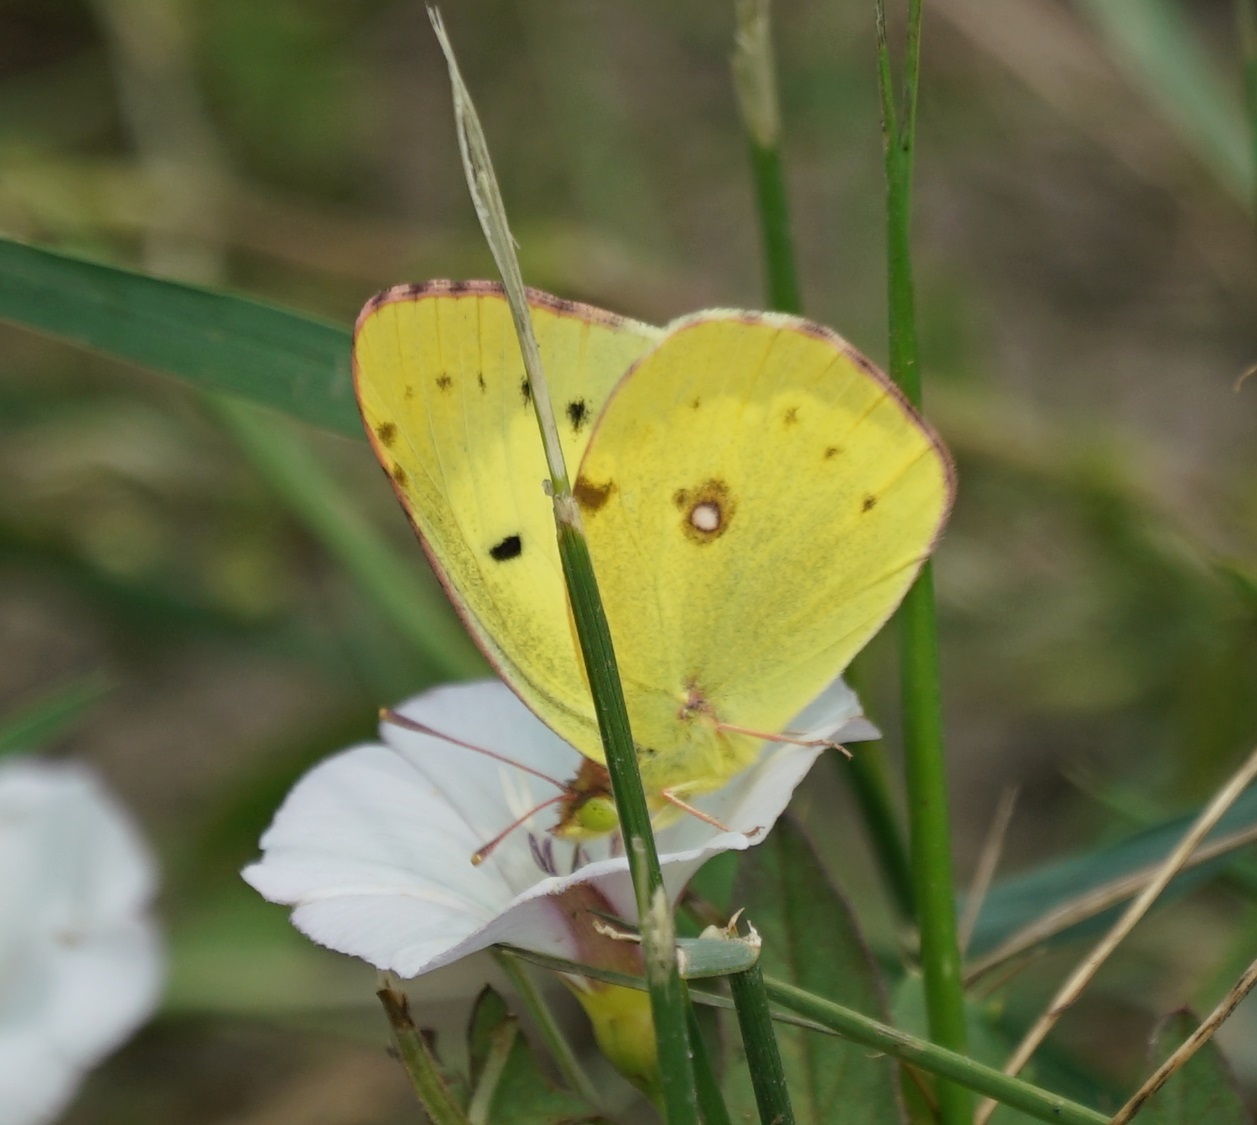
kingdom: Animalia
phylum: Arthropoda
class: Insecta
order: Lepidoptera
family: Pieridae
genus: Colias
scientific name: Colias erate
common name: Eastern pale clouded yellow
